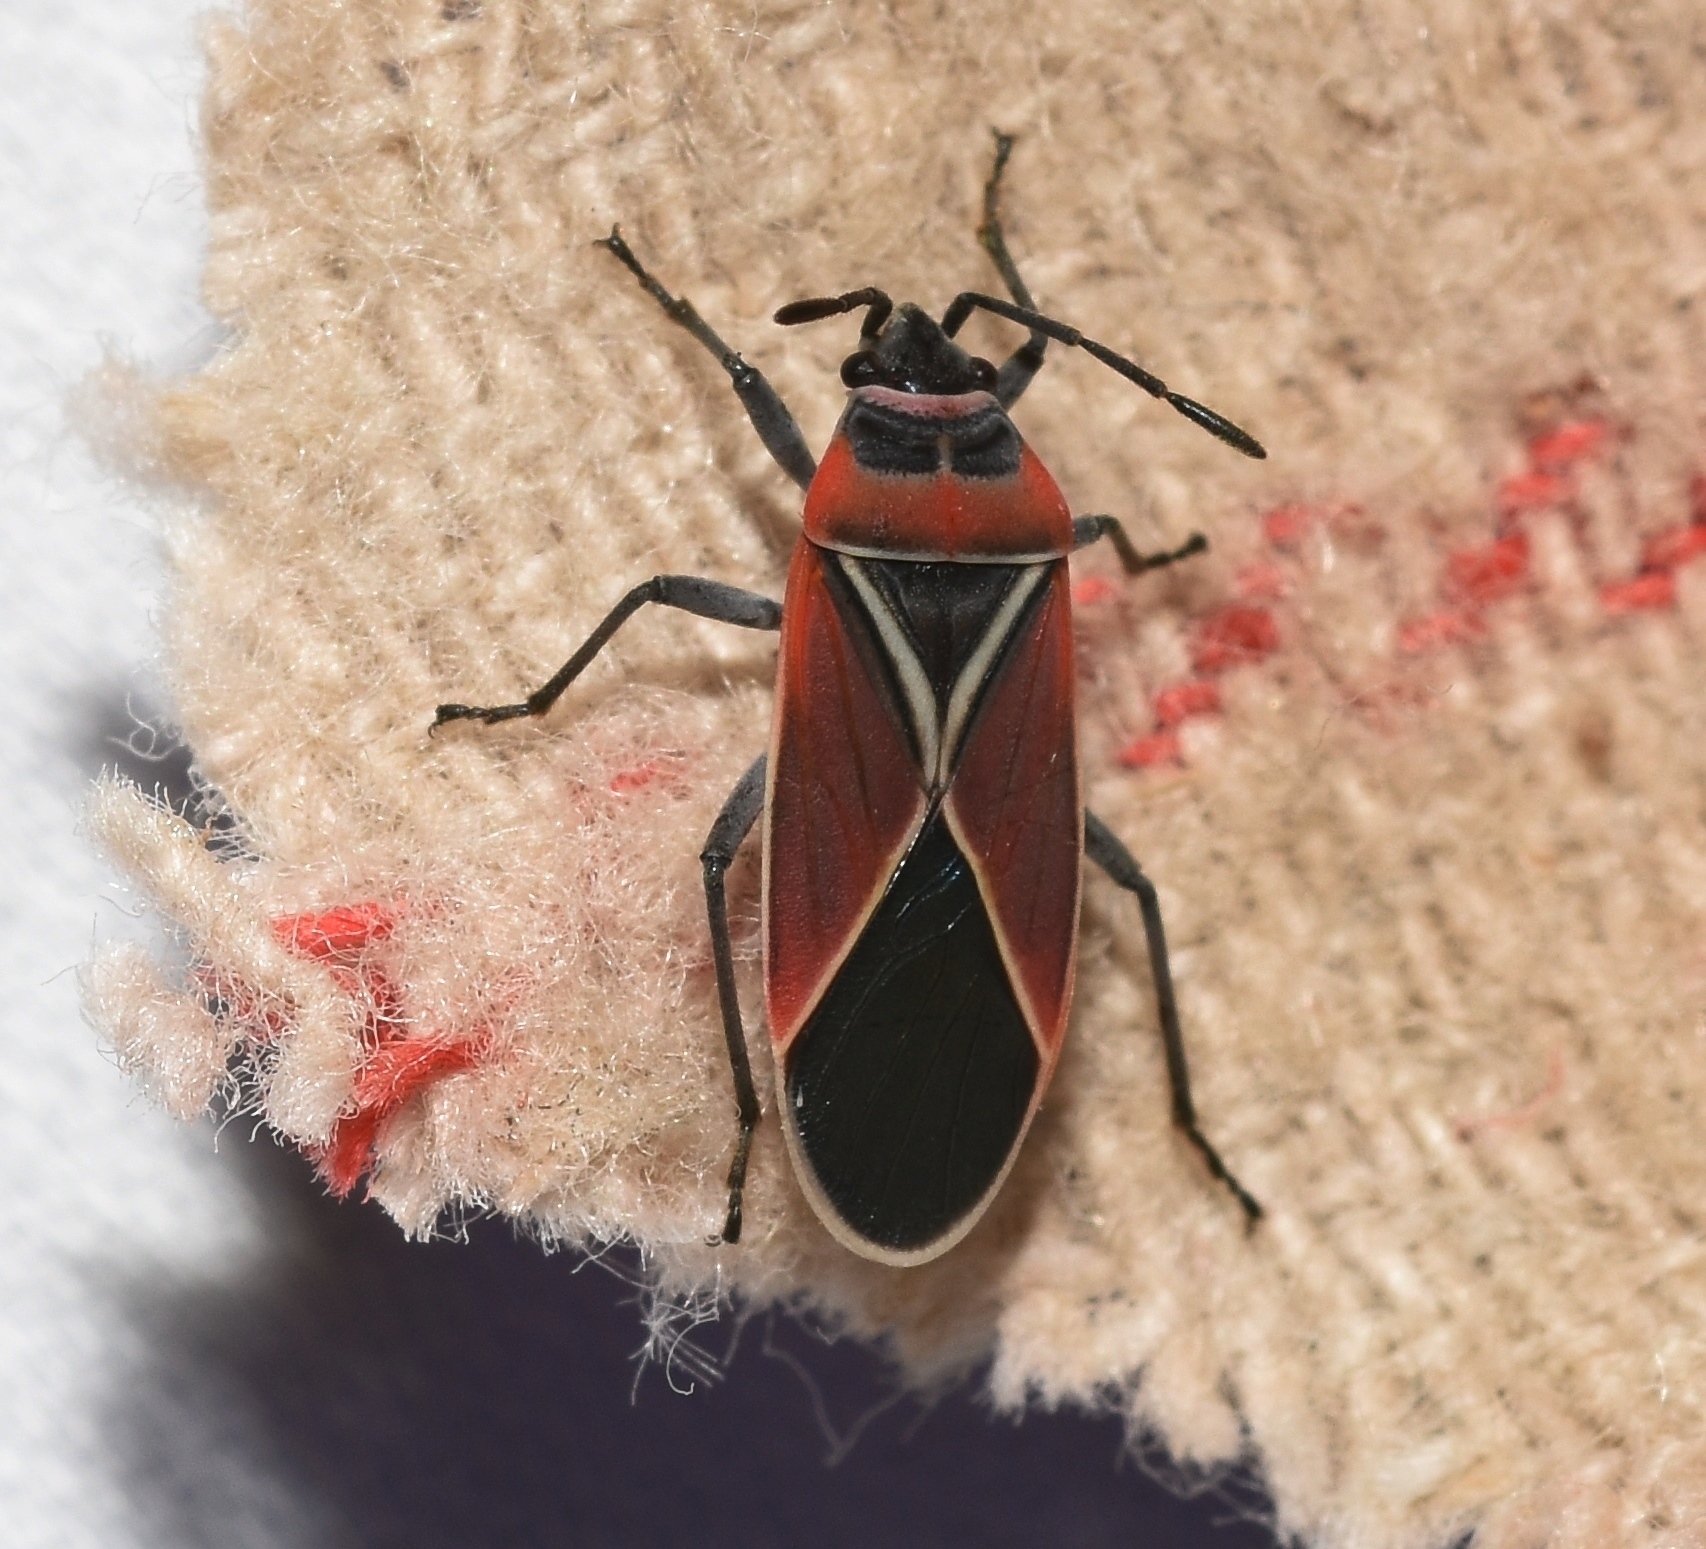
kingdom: Animalia
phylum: Arthropoda
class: Insecta
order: Hemiptera
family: Lygaeidae
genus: Neacoryphus
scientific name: Neacoryphus bicrucis
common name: Lygaeid bug
